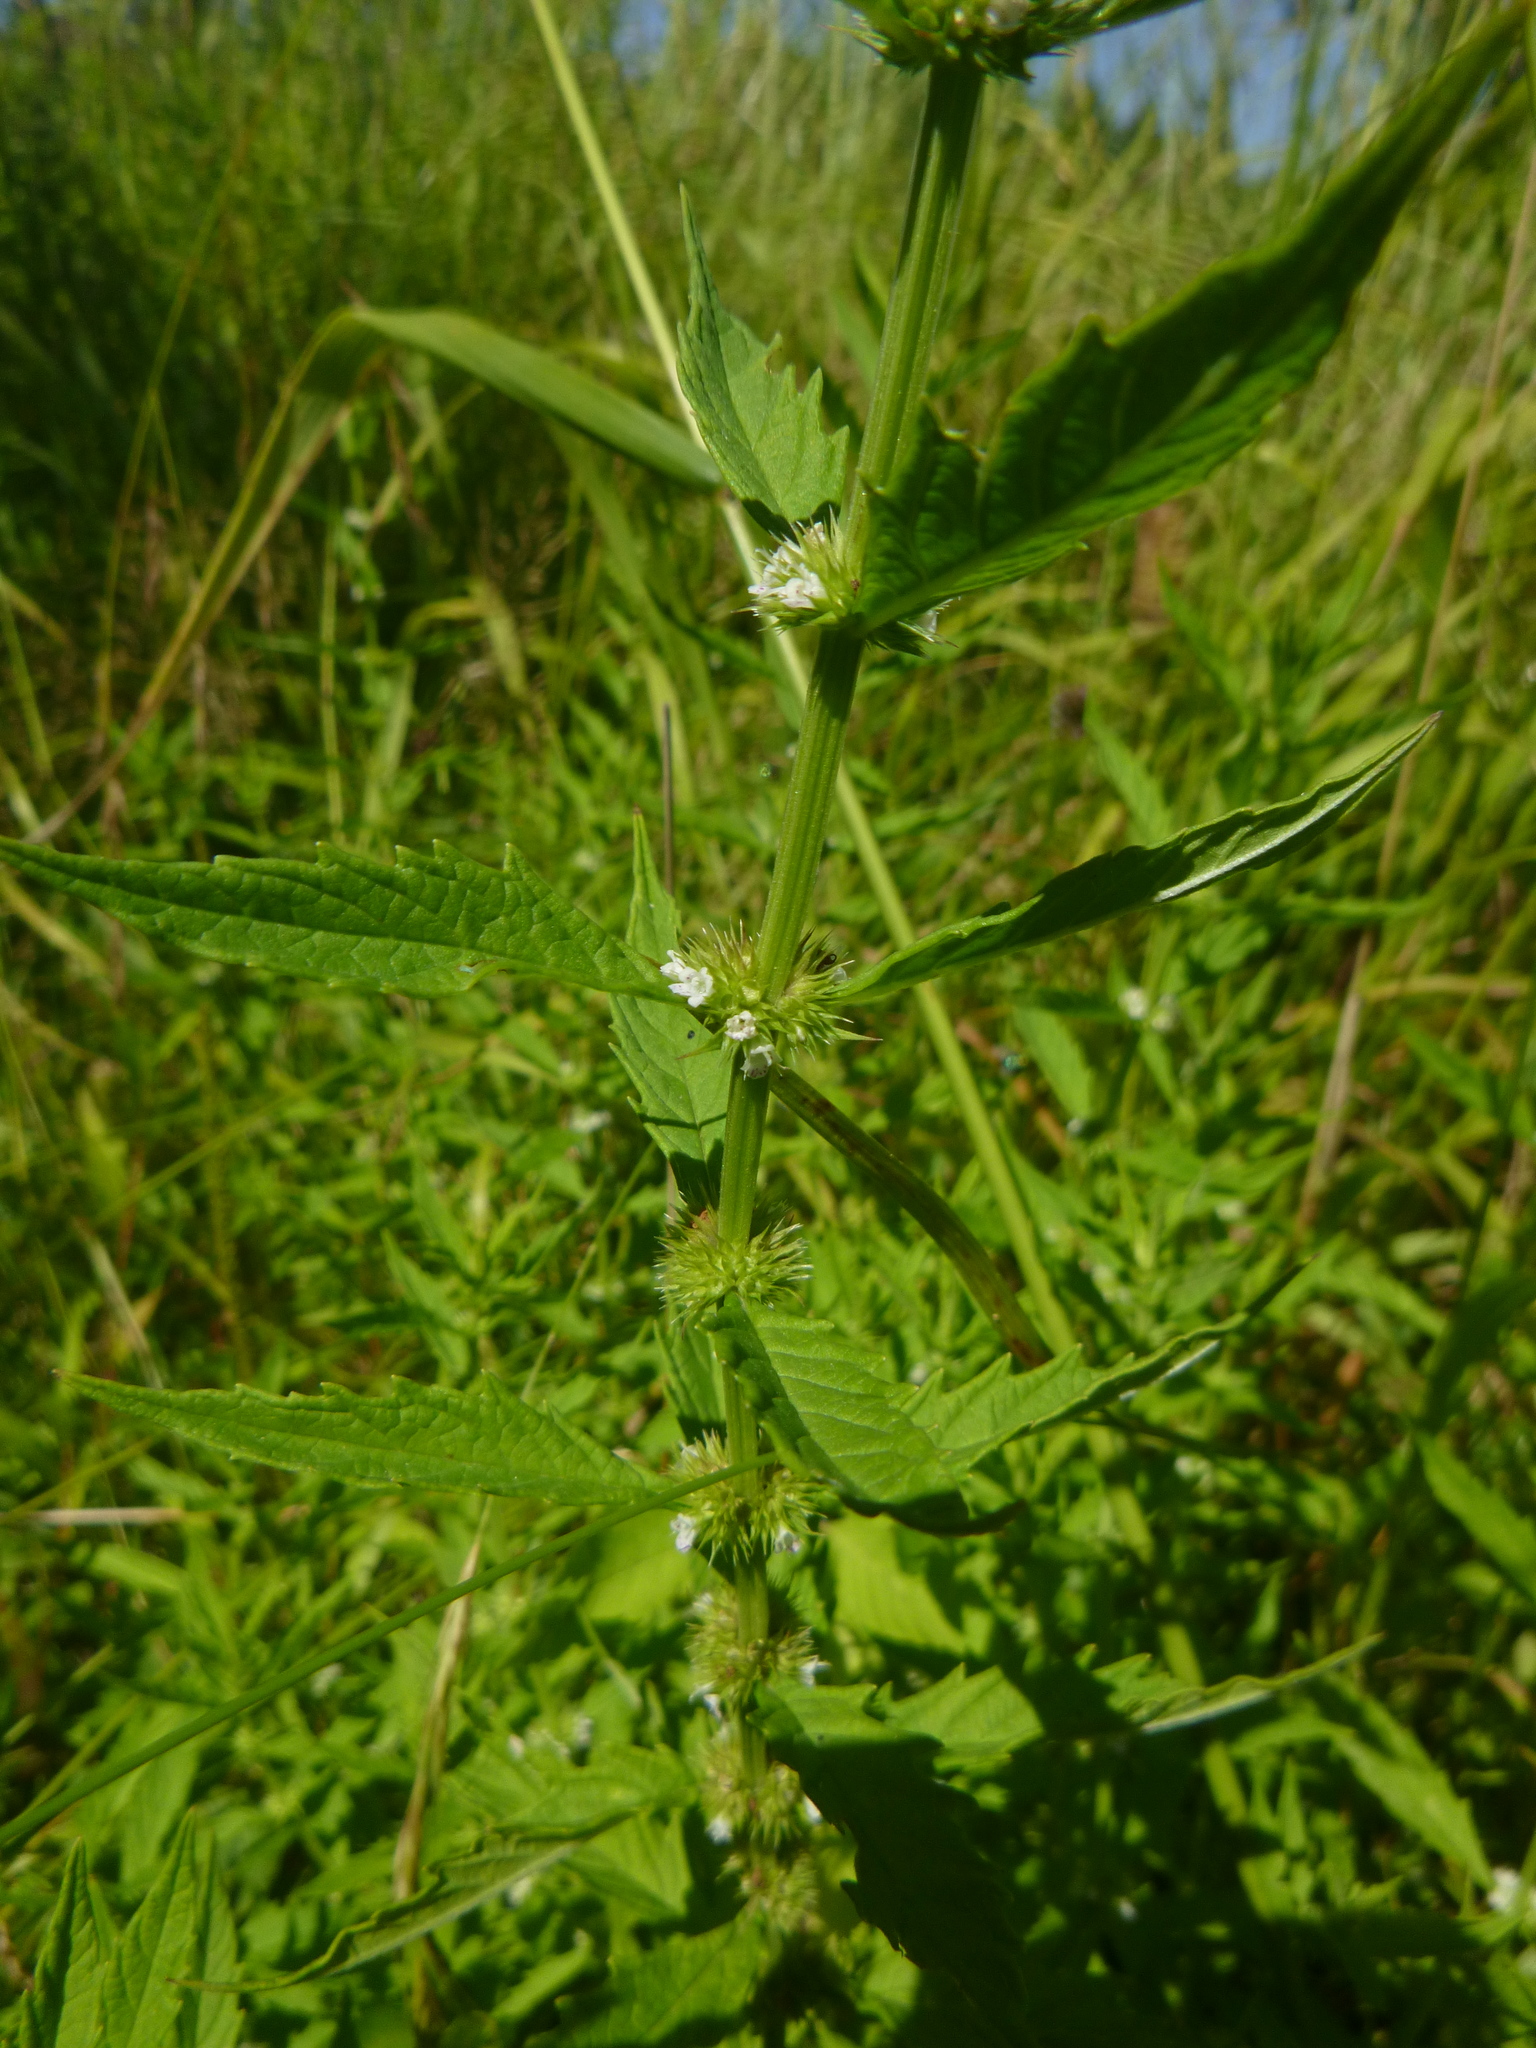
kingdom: Plantae
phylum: Tracheophyta
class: Magnoliopsida
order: Lamiales
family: Lamiaceae
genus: Lycopus
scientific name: Lycopus europaeus
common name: European bugleweed
